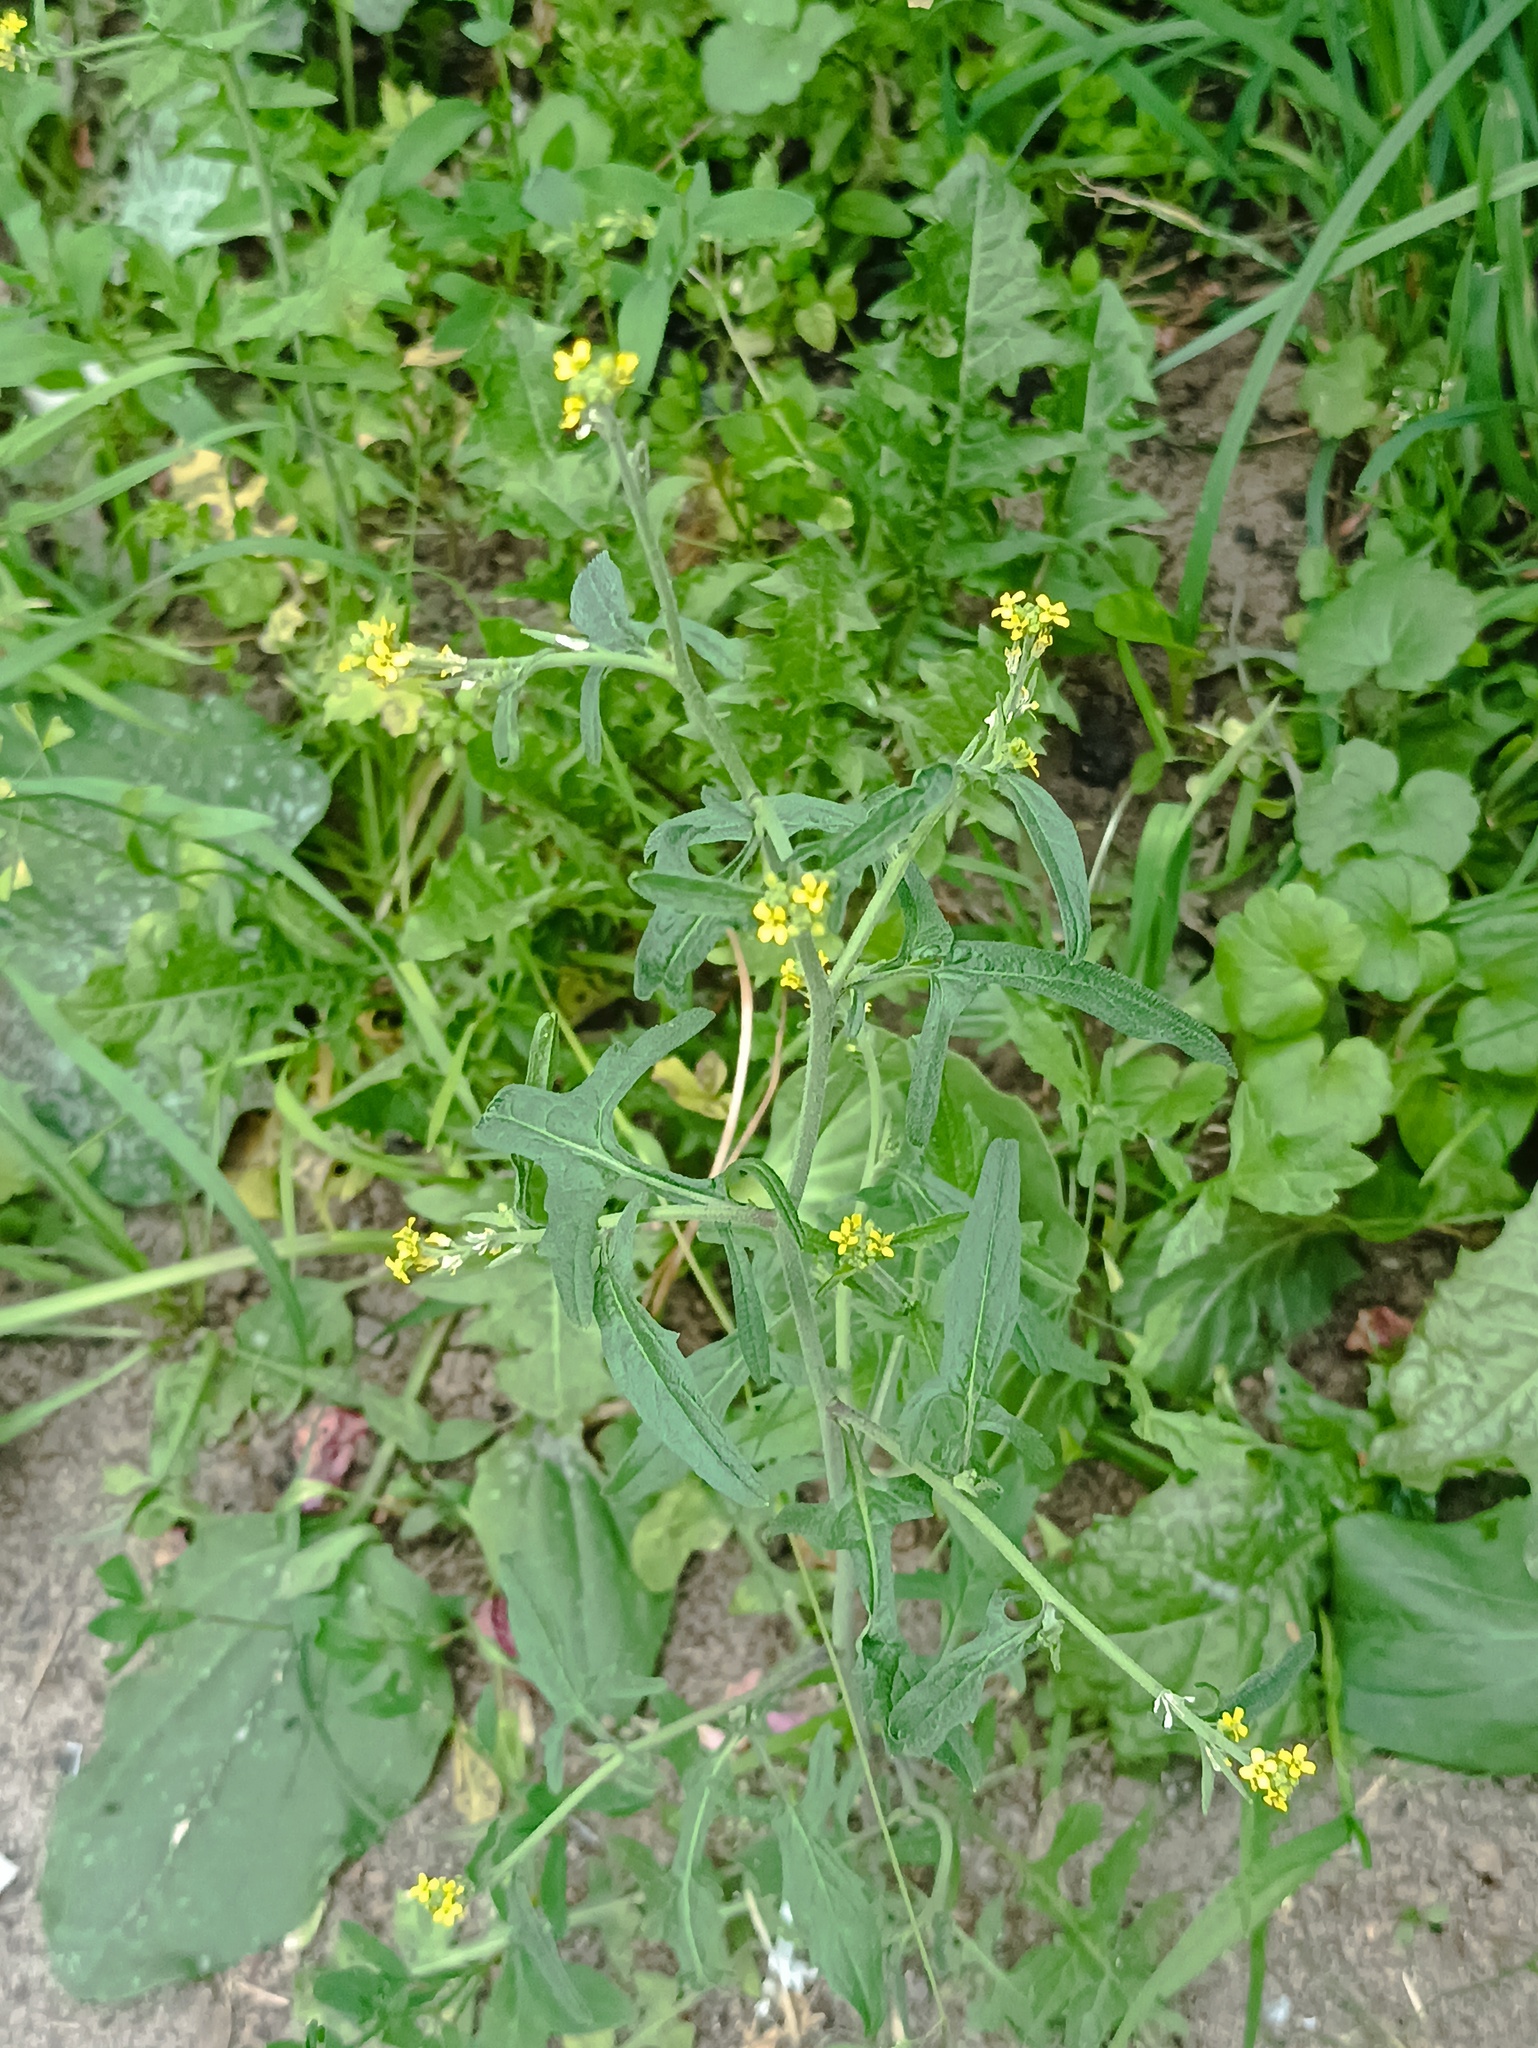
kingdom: Plantae
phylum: Tracheophyta
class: Magnoliopsida
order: Brassicales
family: Brassicaceae
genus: Sisymbrium
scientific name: Sisymbrium officinale
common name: Hedge mustard
